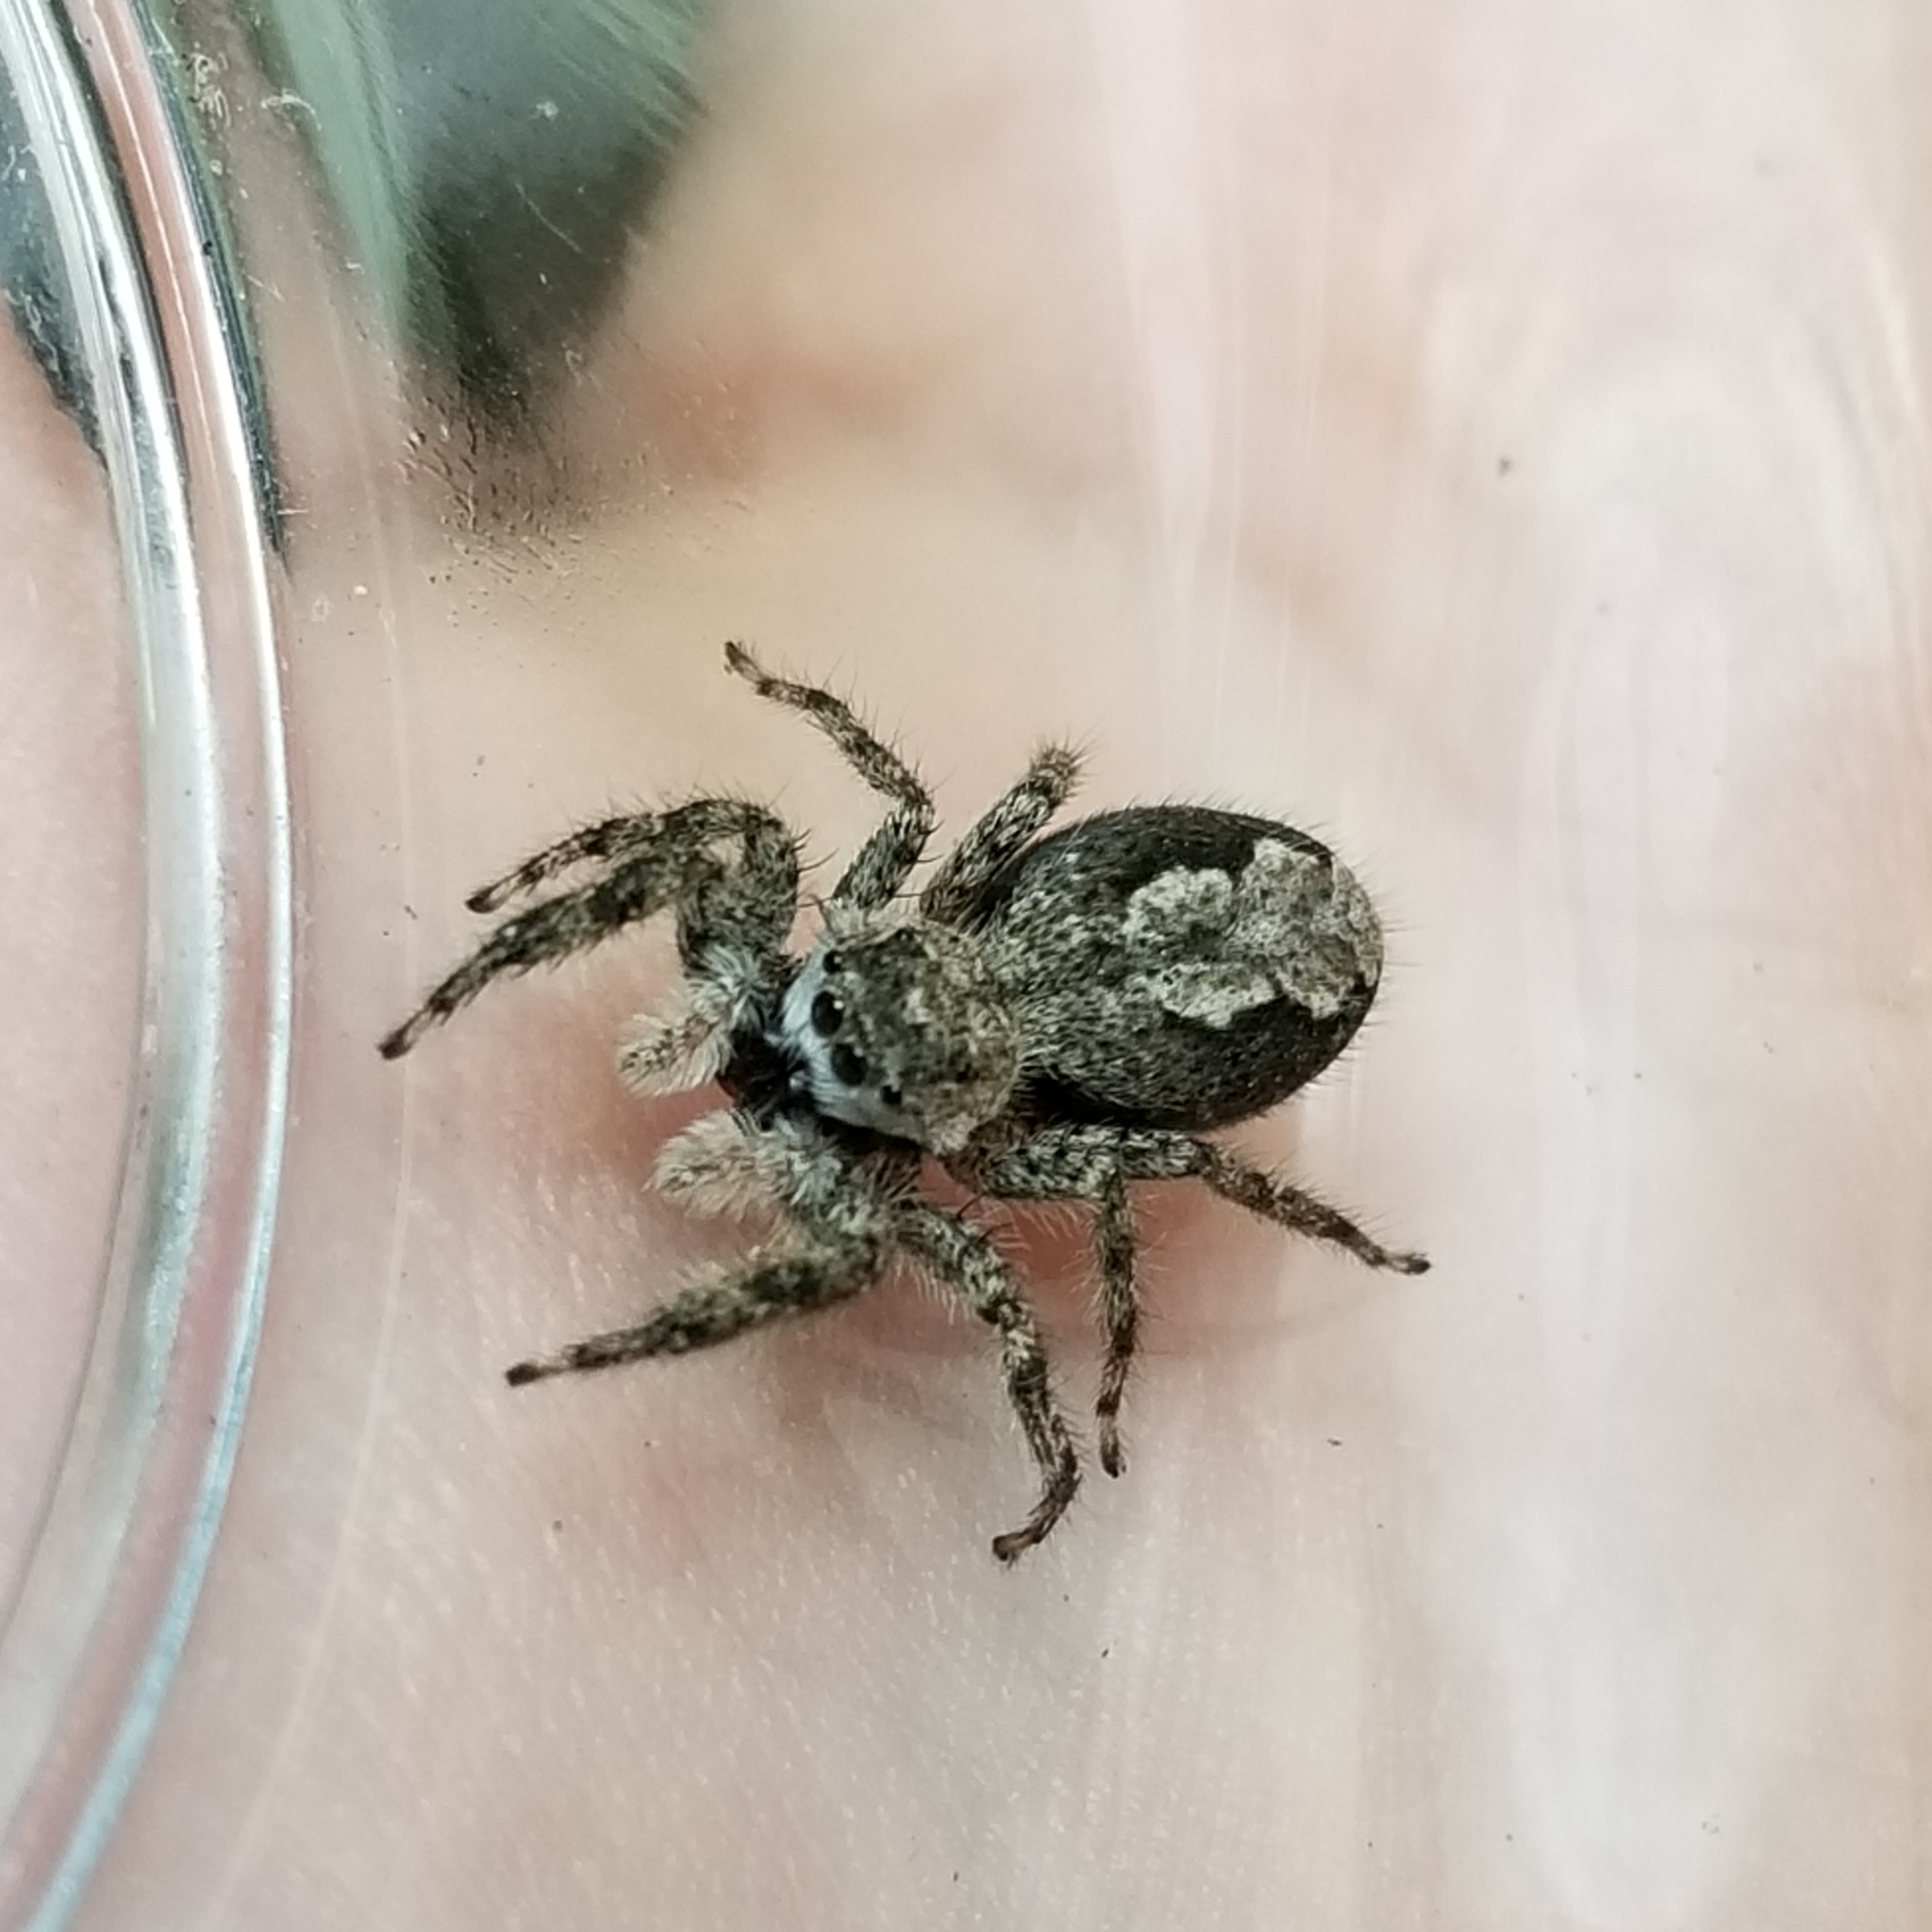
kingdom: Animalia
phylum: Arthropoda
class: Arachnida
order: Araneae
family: Salticidae
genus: Platycryptus
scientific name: Platycryptus undatus
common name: Tan jumping spider
